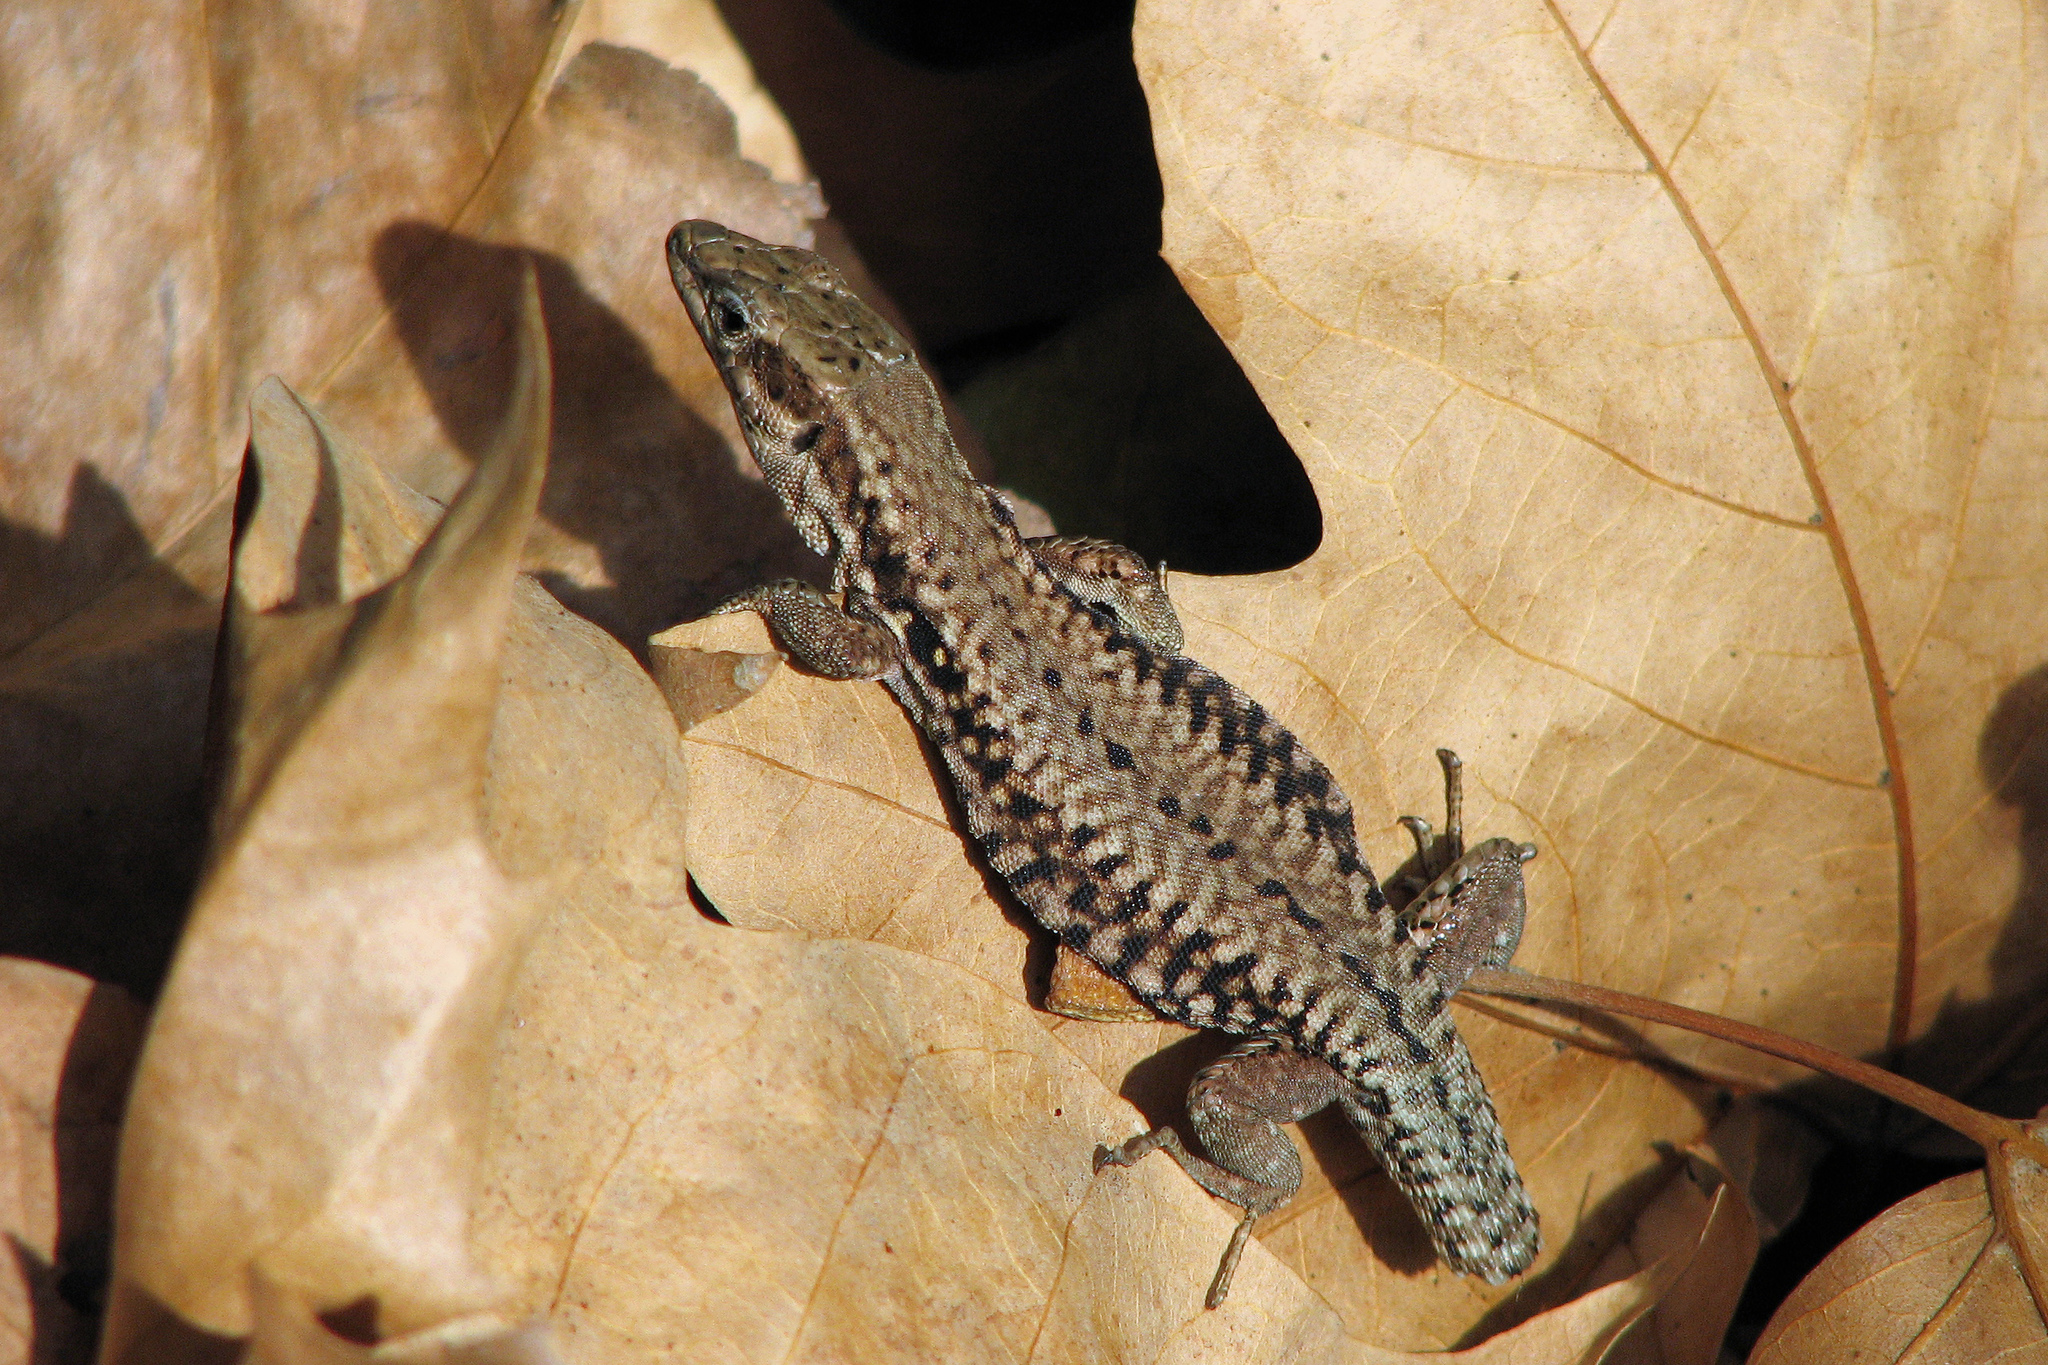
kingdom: Animalia
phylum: Chordata
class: Squamata
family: Lacertidae
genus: Podarcis
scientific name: Podarcis muralis
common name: Common wall lizard
